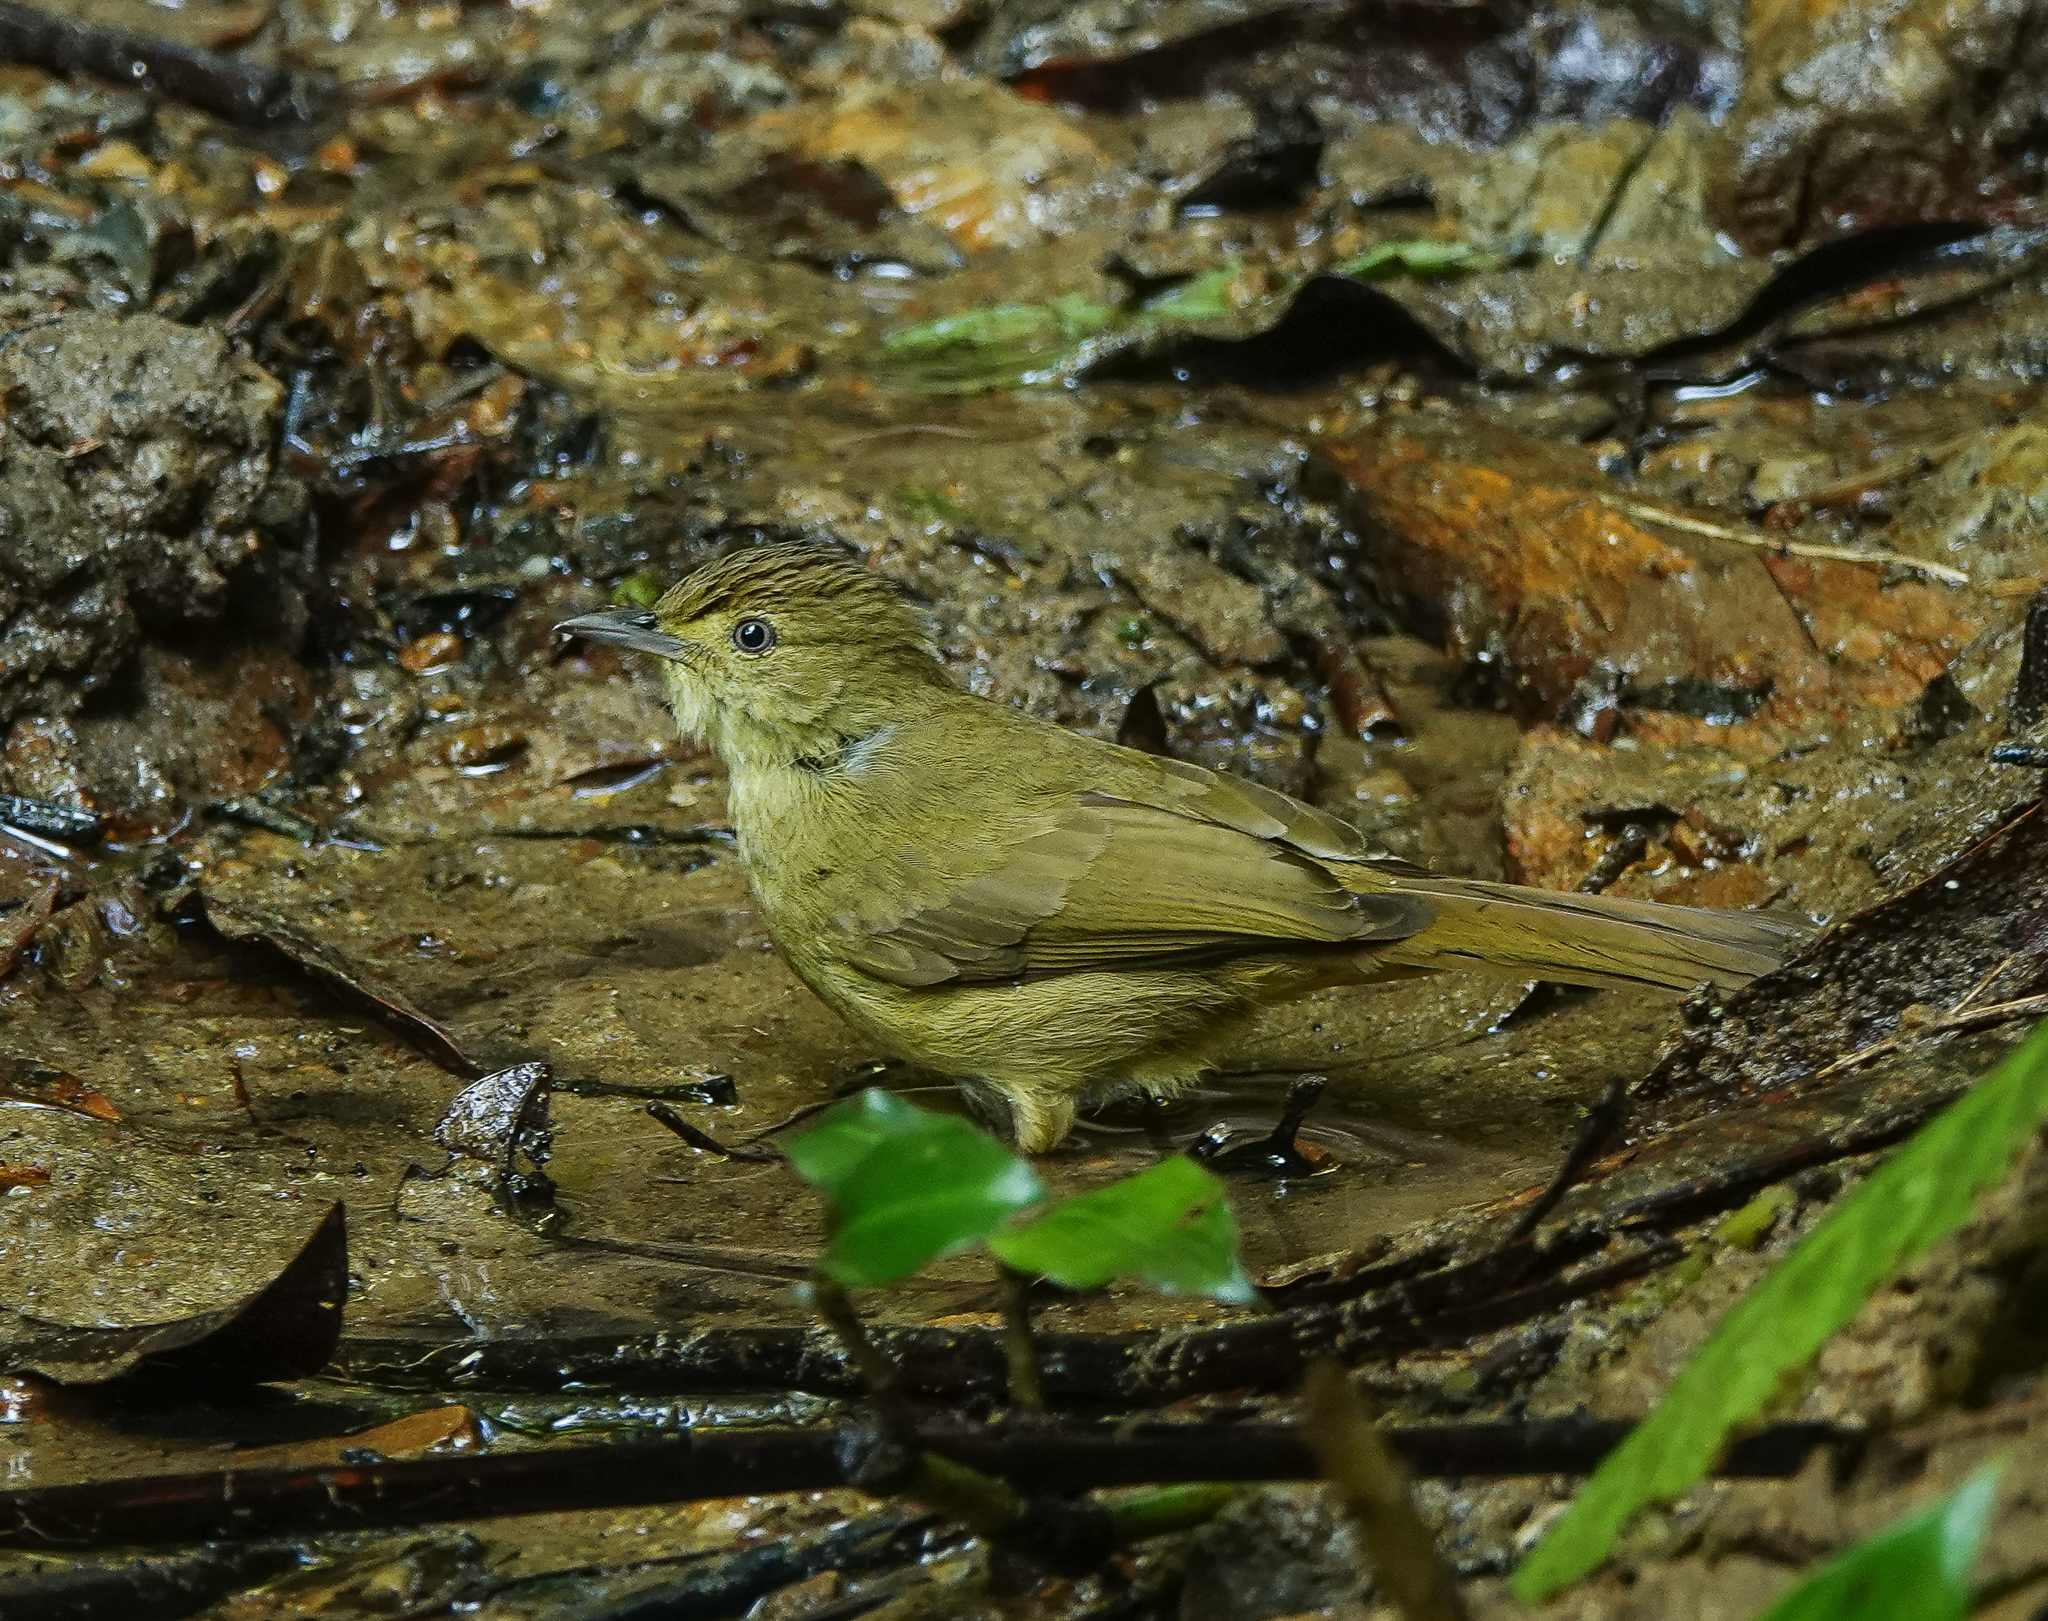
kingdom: Animalia
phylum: Chordata
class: Aves
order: Passeriformes
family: Pycnonotidae
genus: Iole
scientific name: Iole virescens
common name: Olive bulbul
